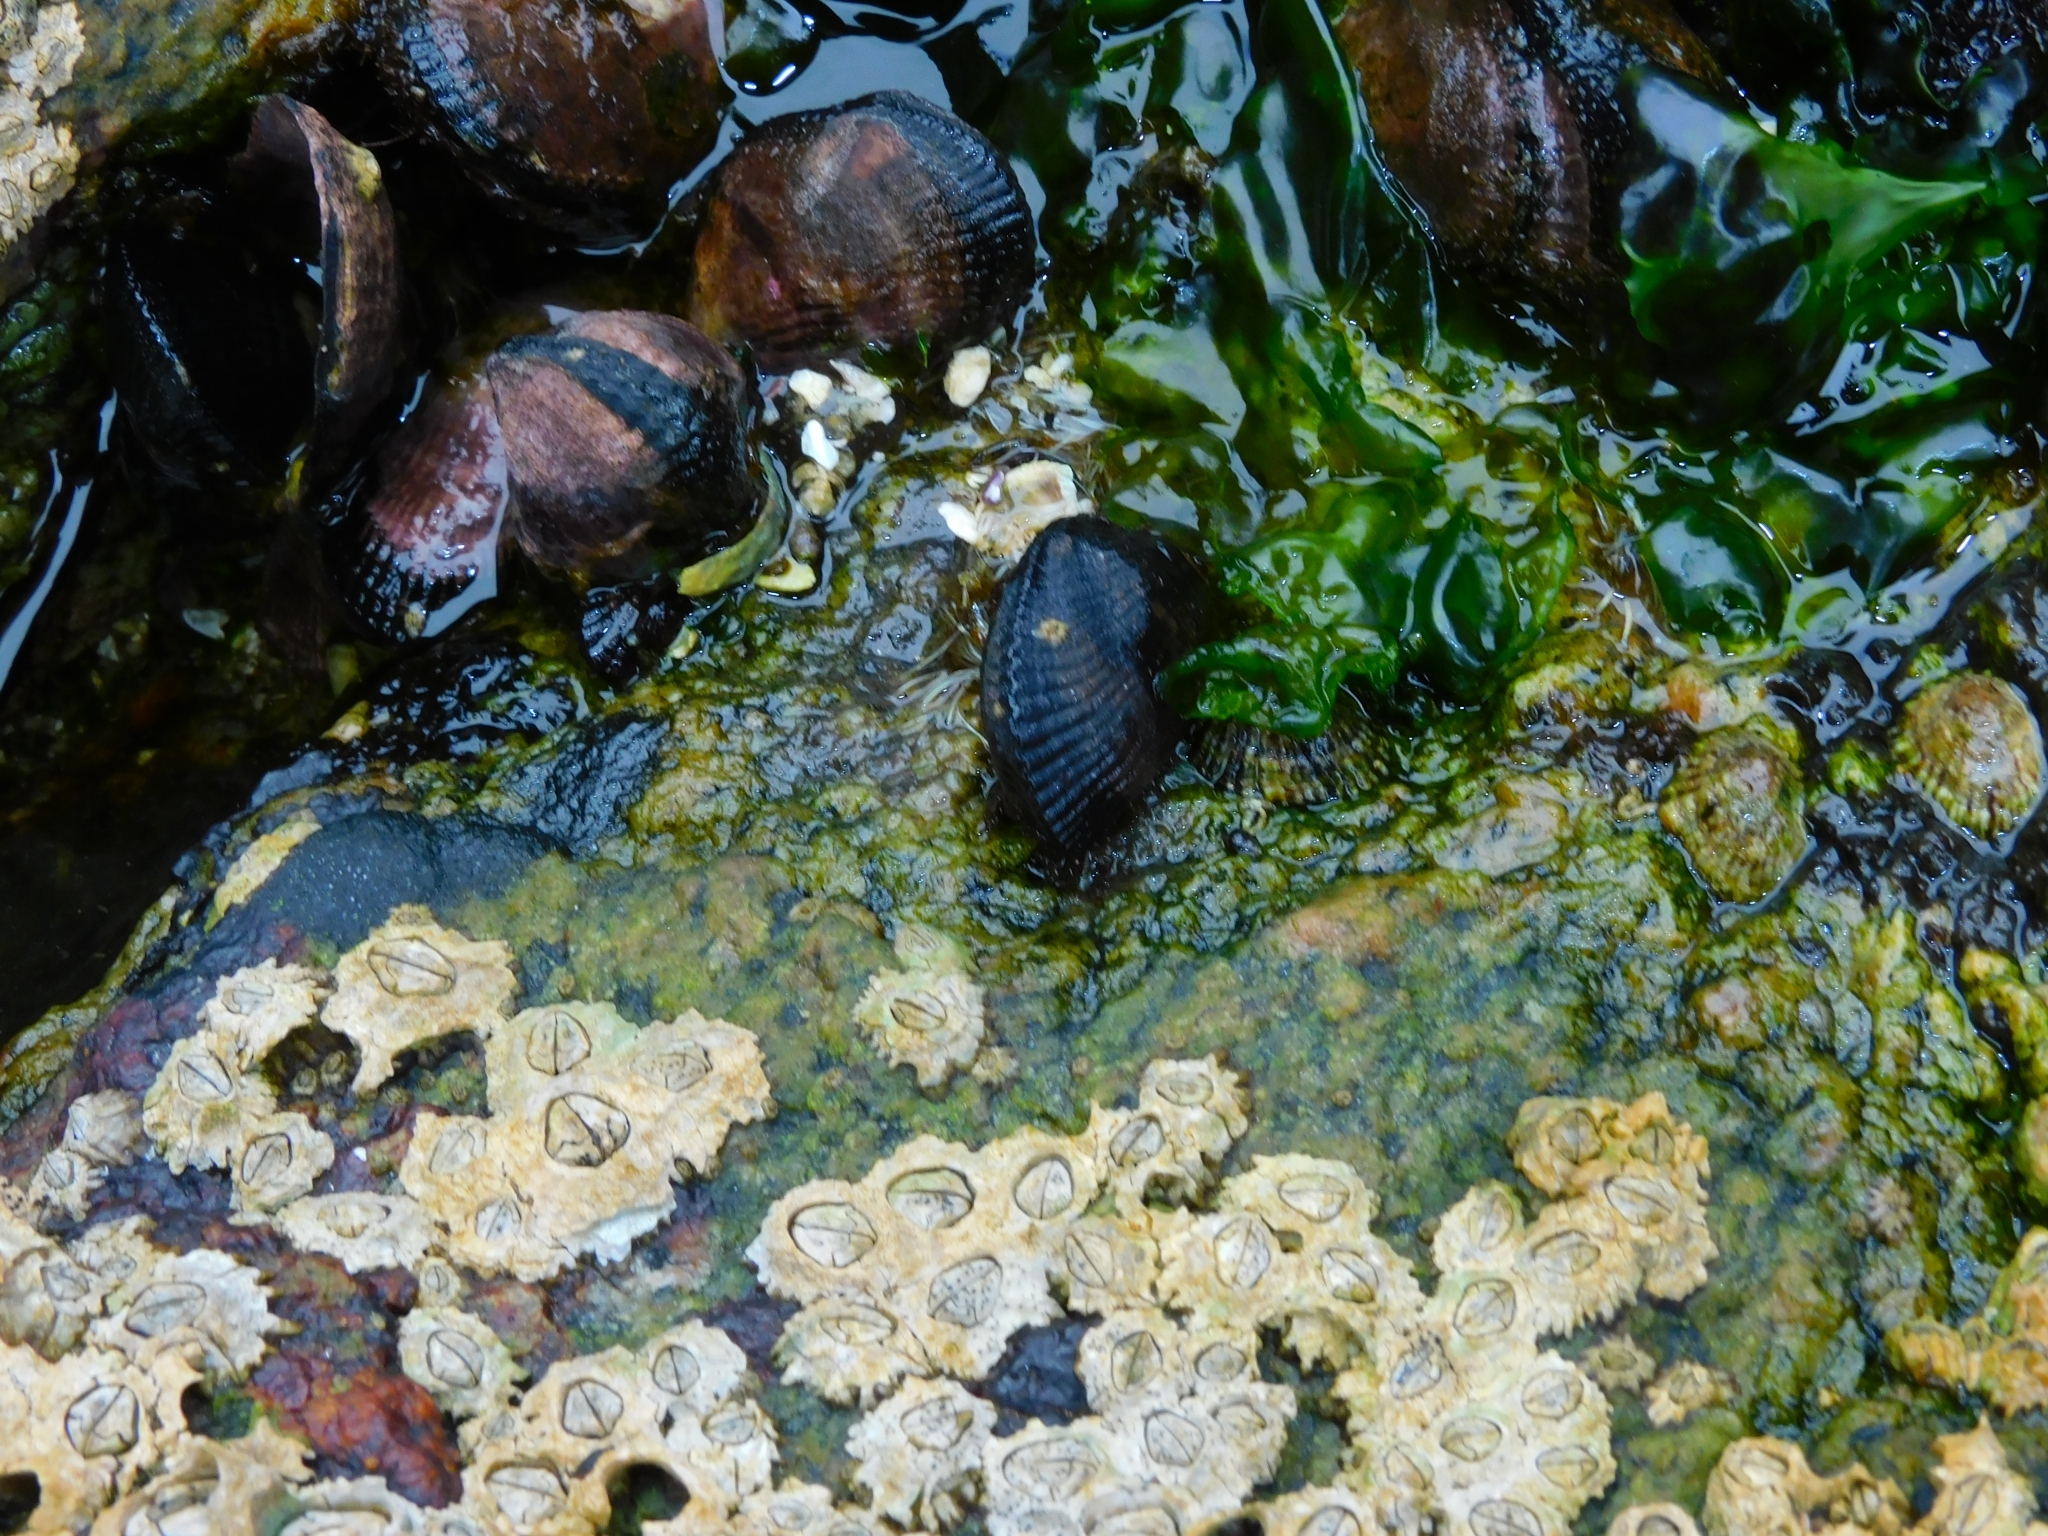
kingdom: Animalia
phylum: Mollusca
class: Bivalvia
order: Mytilida
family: Mytilidae
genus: Perumytilus
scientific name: Perumytilus purpuratus
